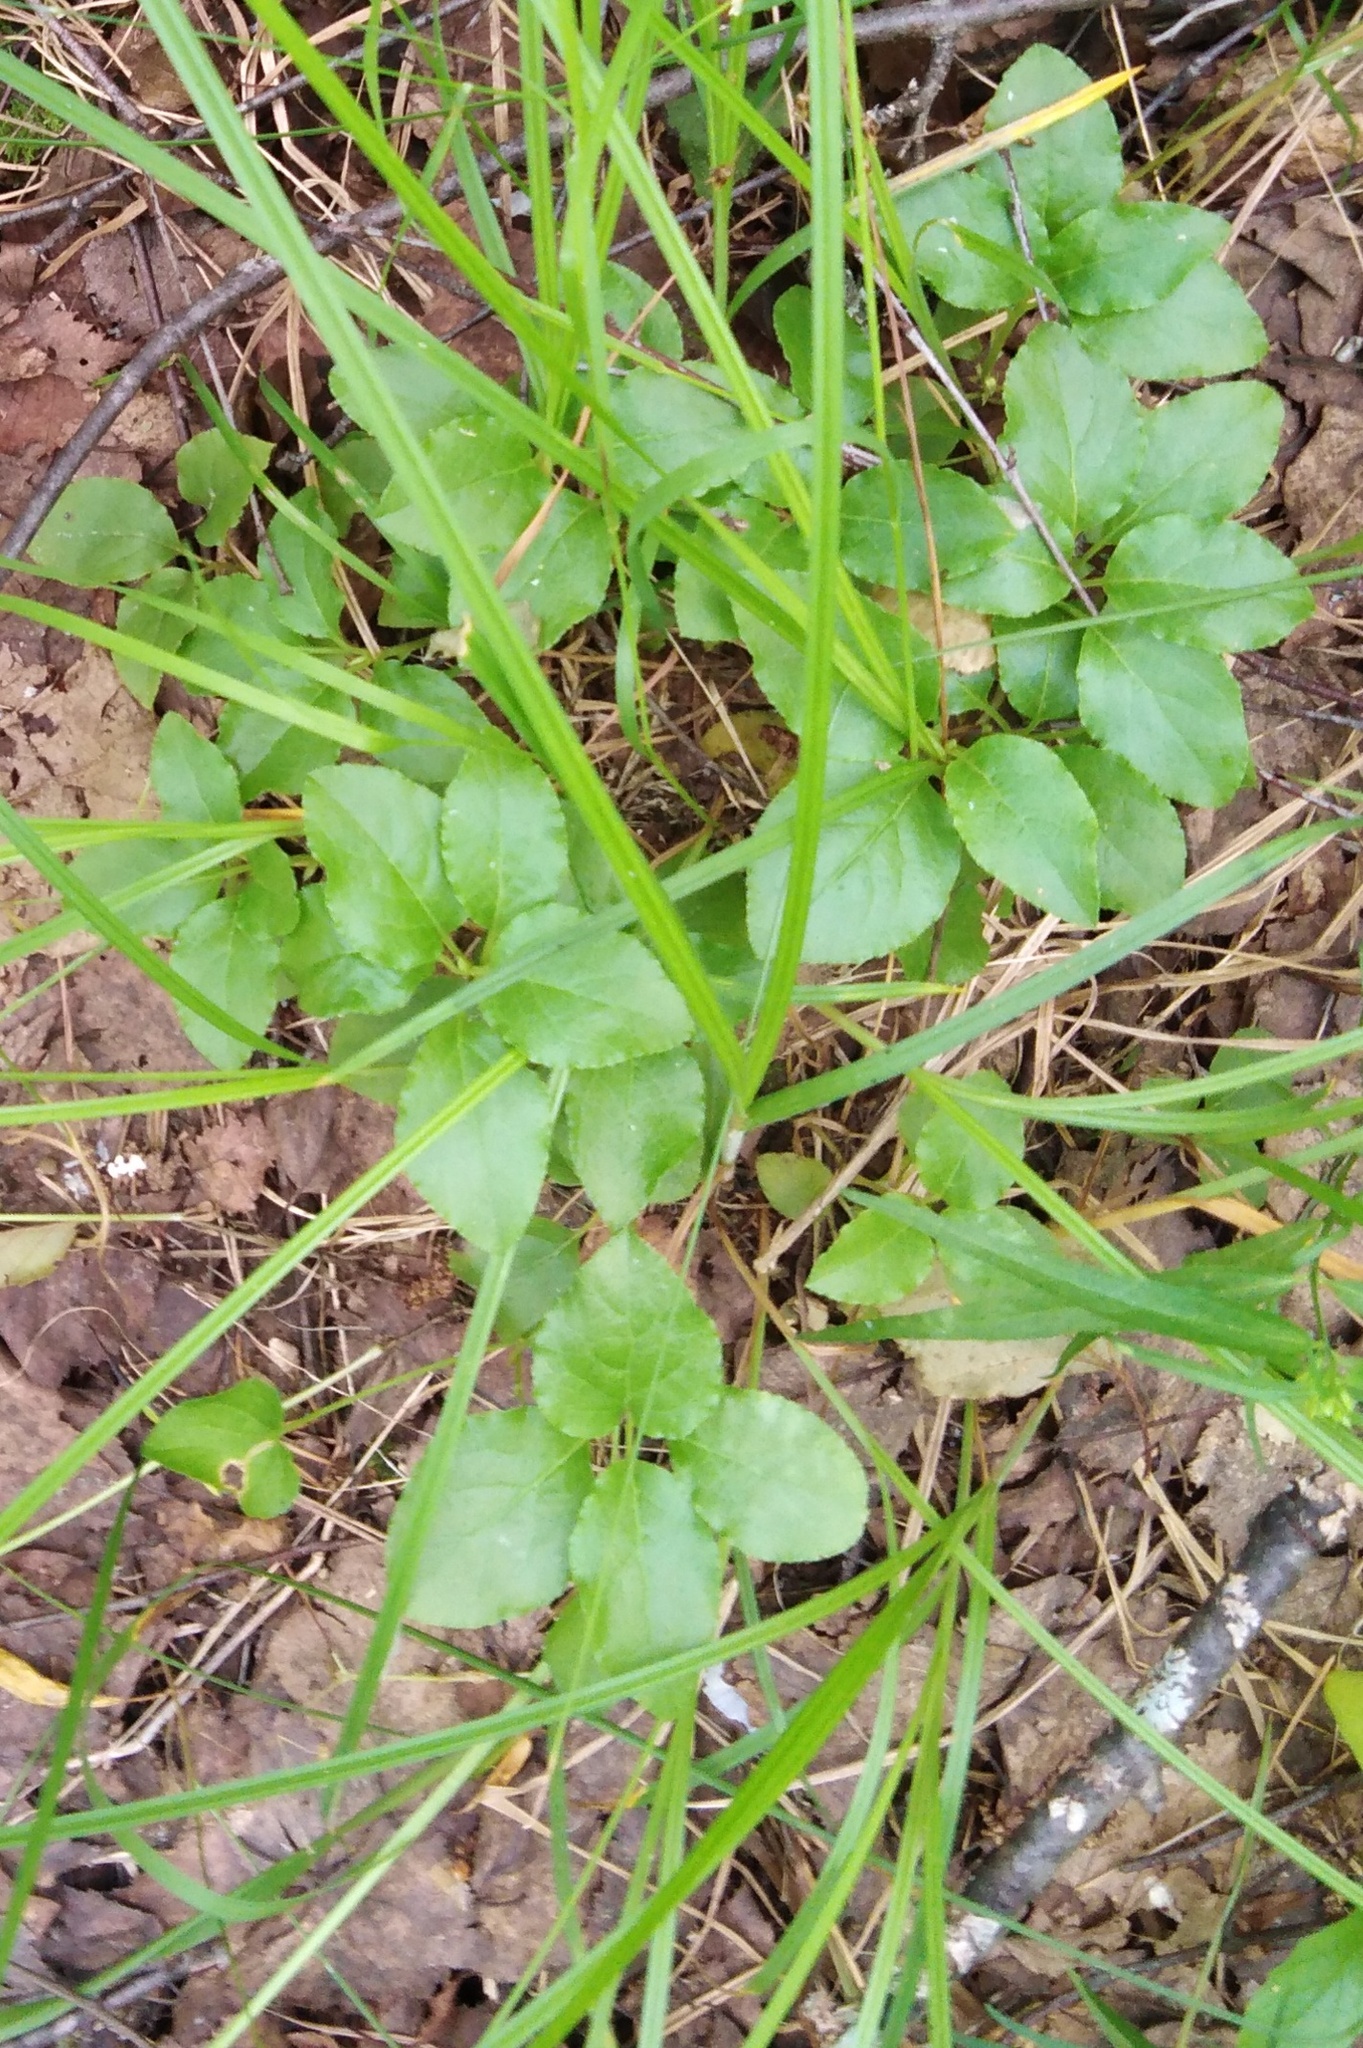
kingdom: Plantae
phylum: Tracheophyta
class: Magnoliopsida
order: Ericales
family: Ericaceae
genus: Orthilia
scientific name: Orthilia secunda
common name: One-sided orthilia
